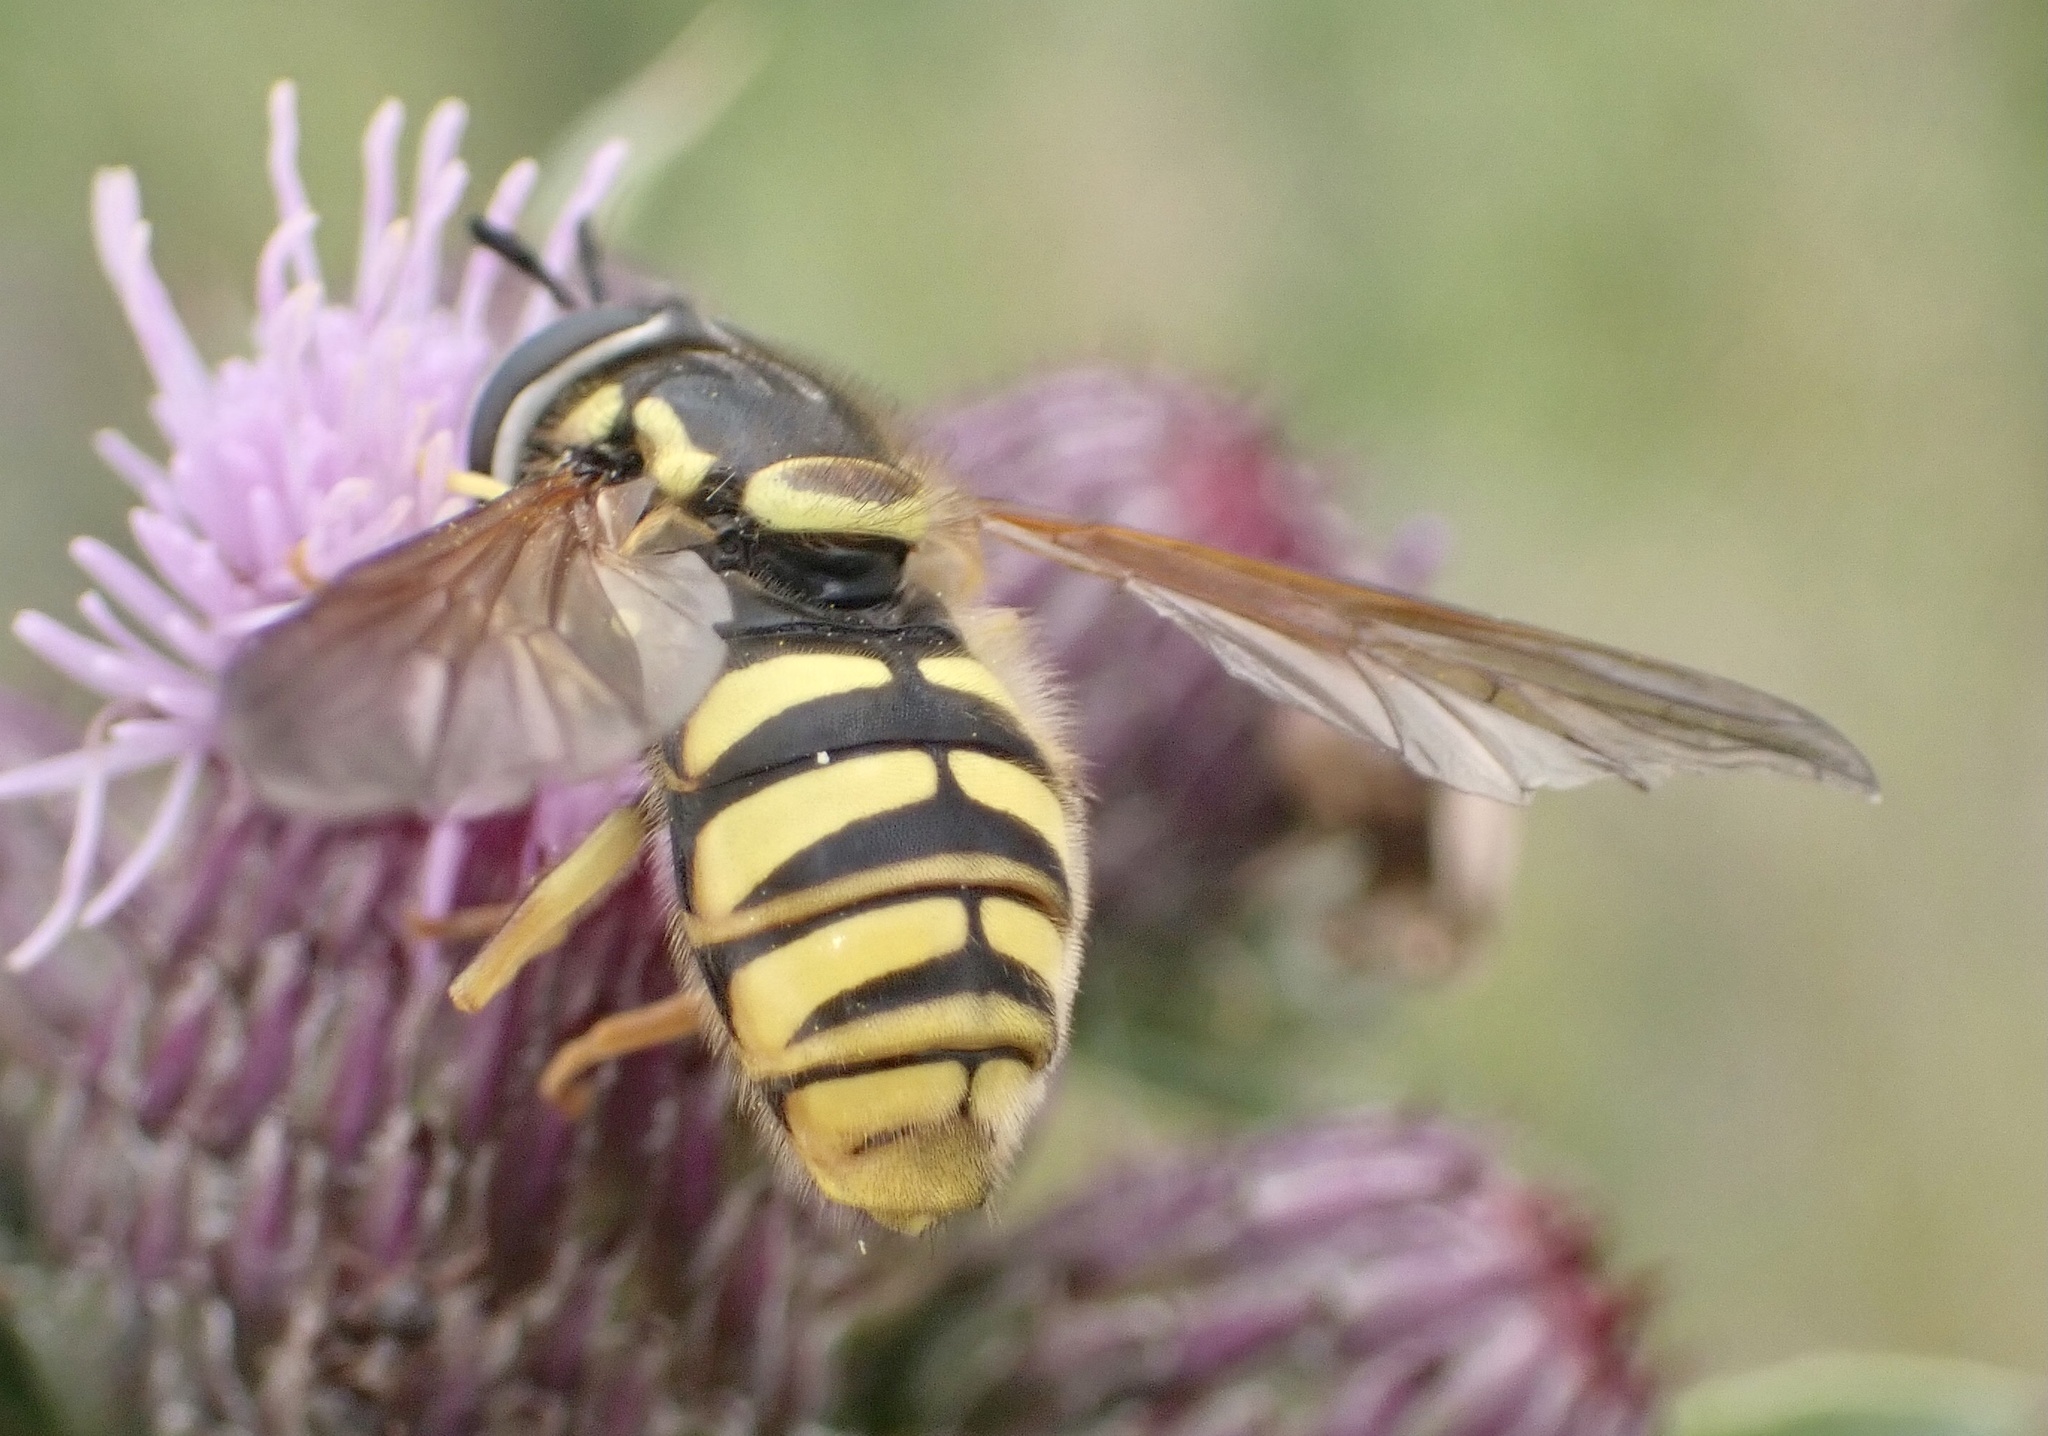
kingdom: Animalia
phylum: Arthropoda
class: Insecta
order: Diptera
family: Syrphidae
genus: Chrysotoxum
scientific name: Chrysotoxum cautum
